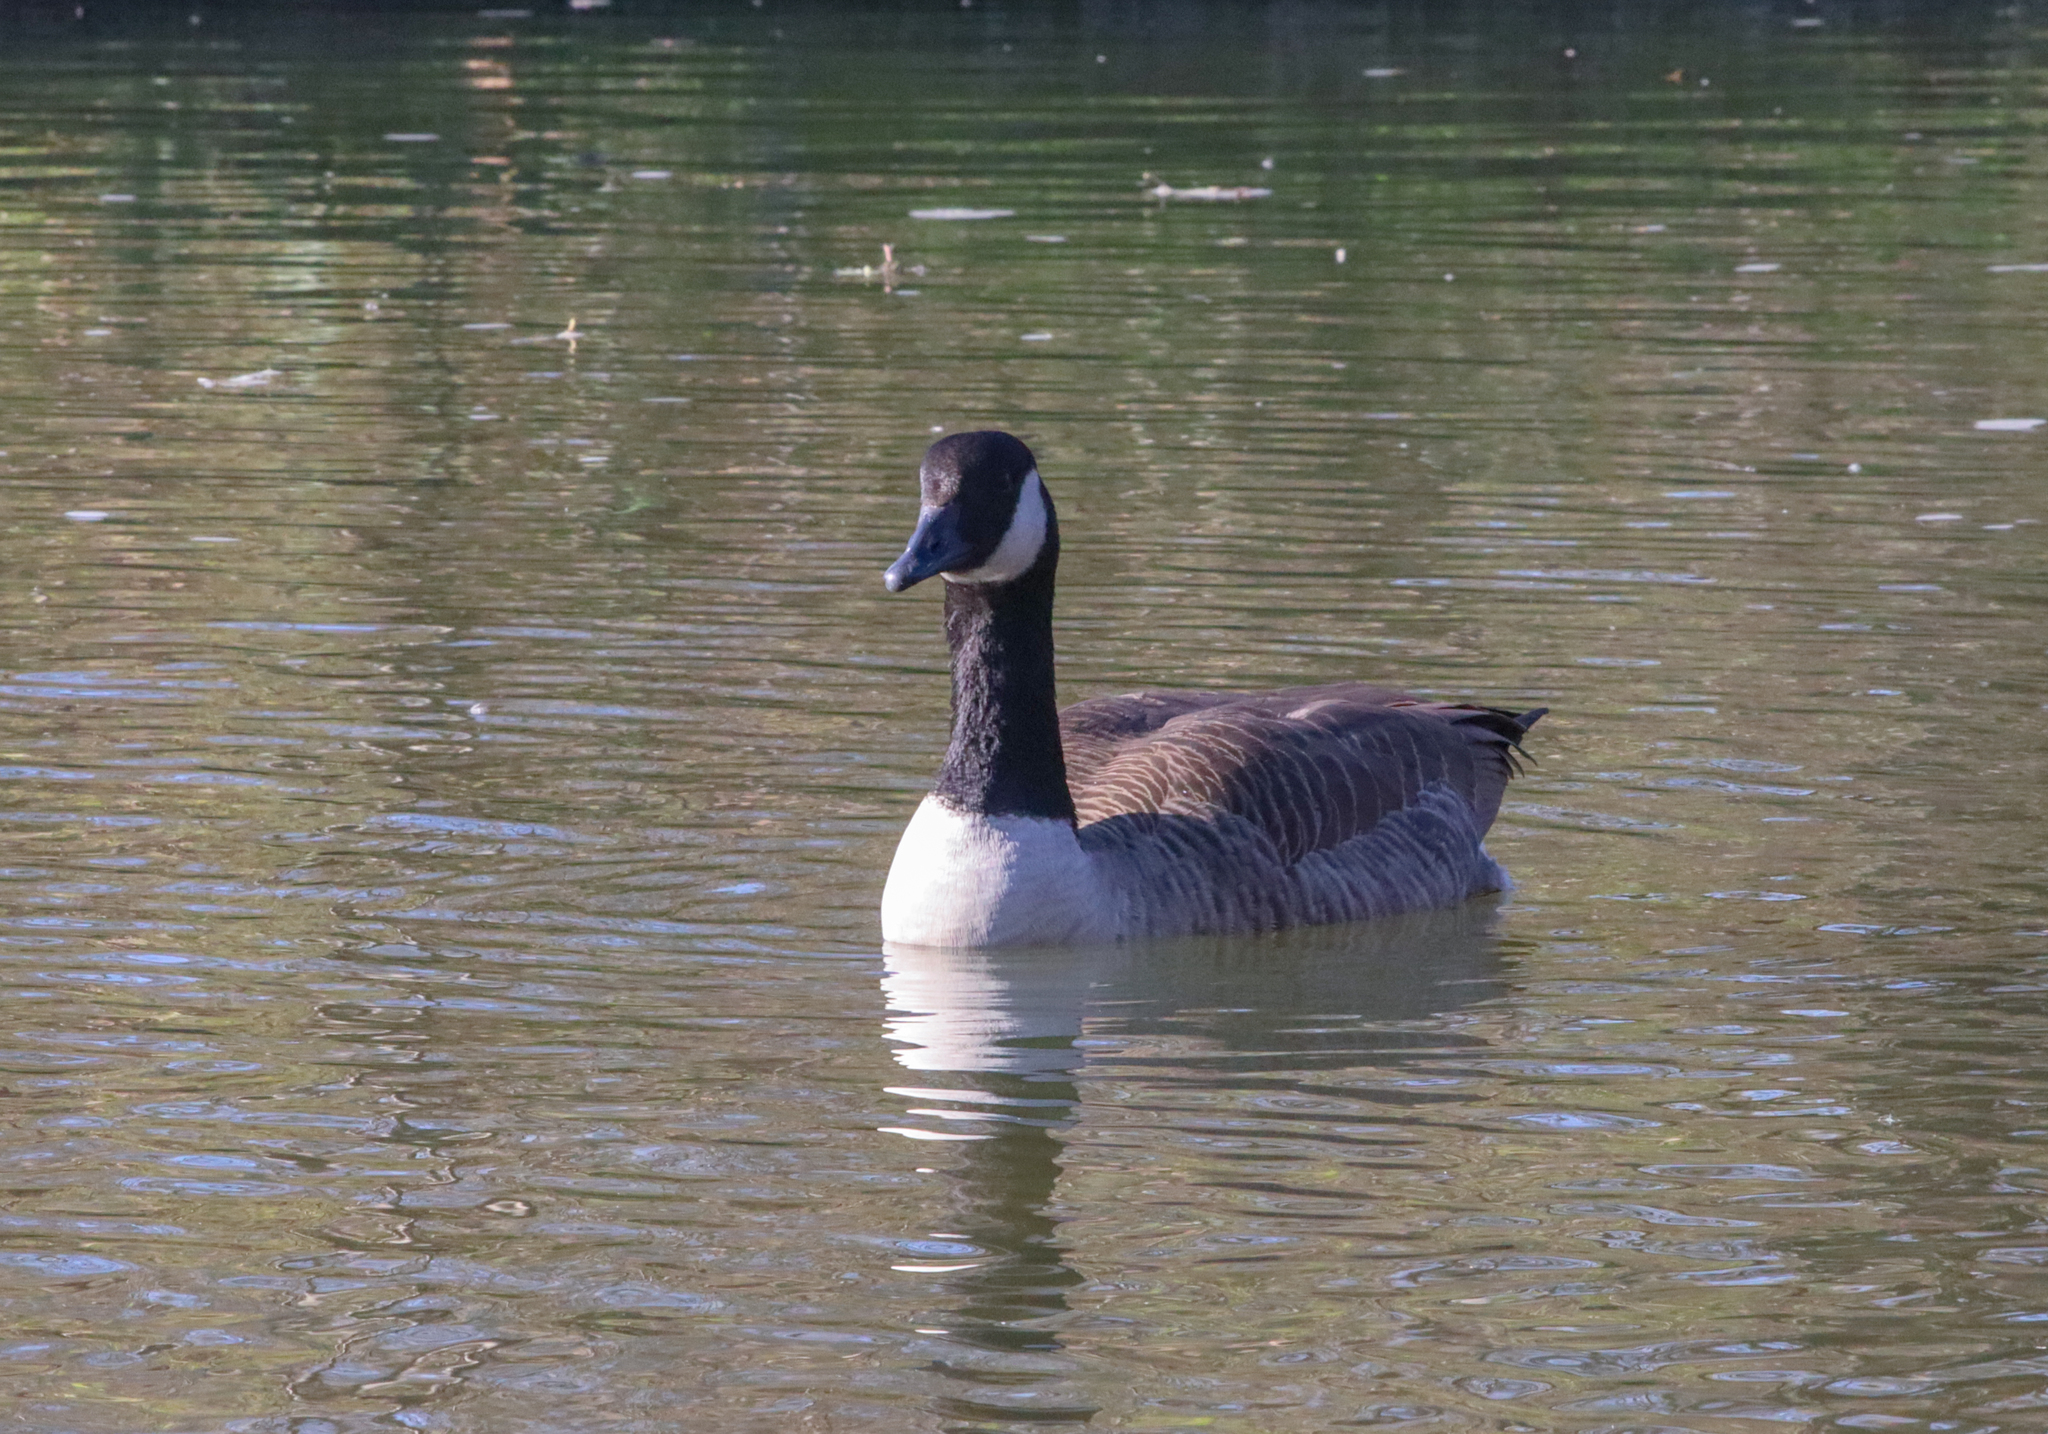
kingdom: Animalia
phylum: Chordata
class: Aves
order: Anseriformes
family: Anatidae
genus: Branta
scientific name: Branta canadensis
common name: Canada goose
